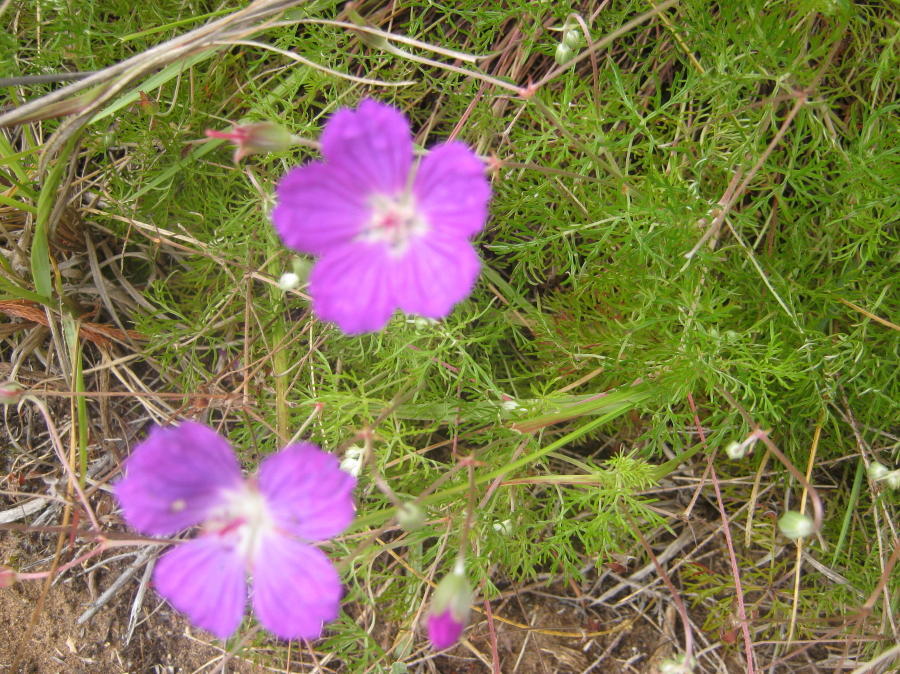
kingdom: Plantae
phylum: Tracheophyta
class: Magnoliopsida
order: Geraniales
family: Geraniaceae
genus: Geranium
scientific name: Geranium incanum
